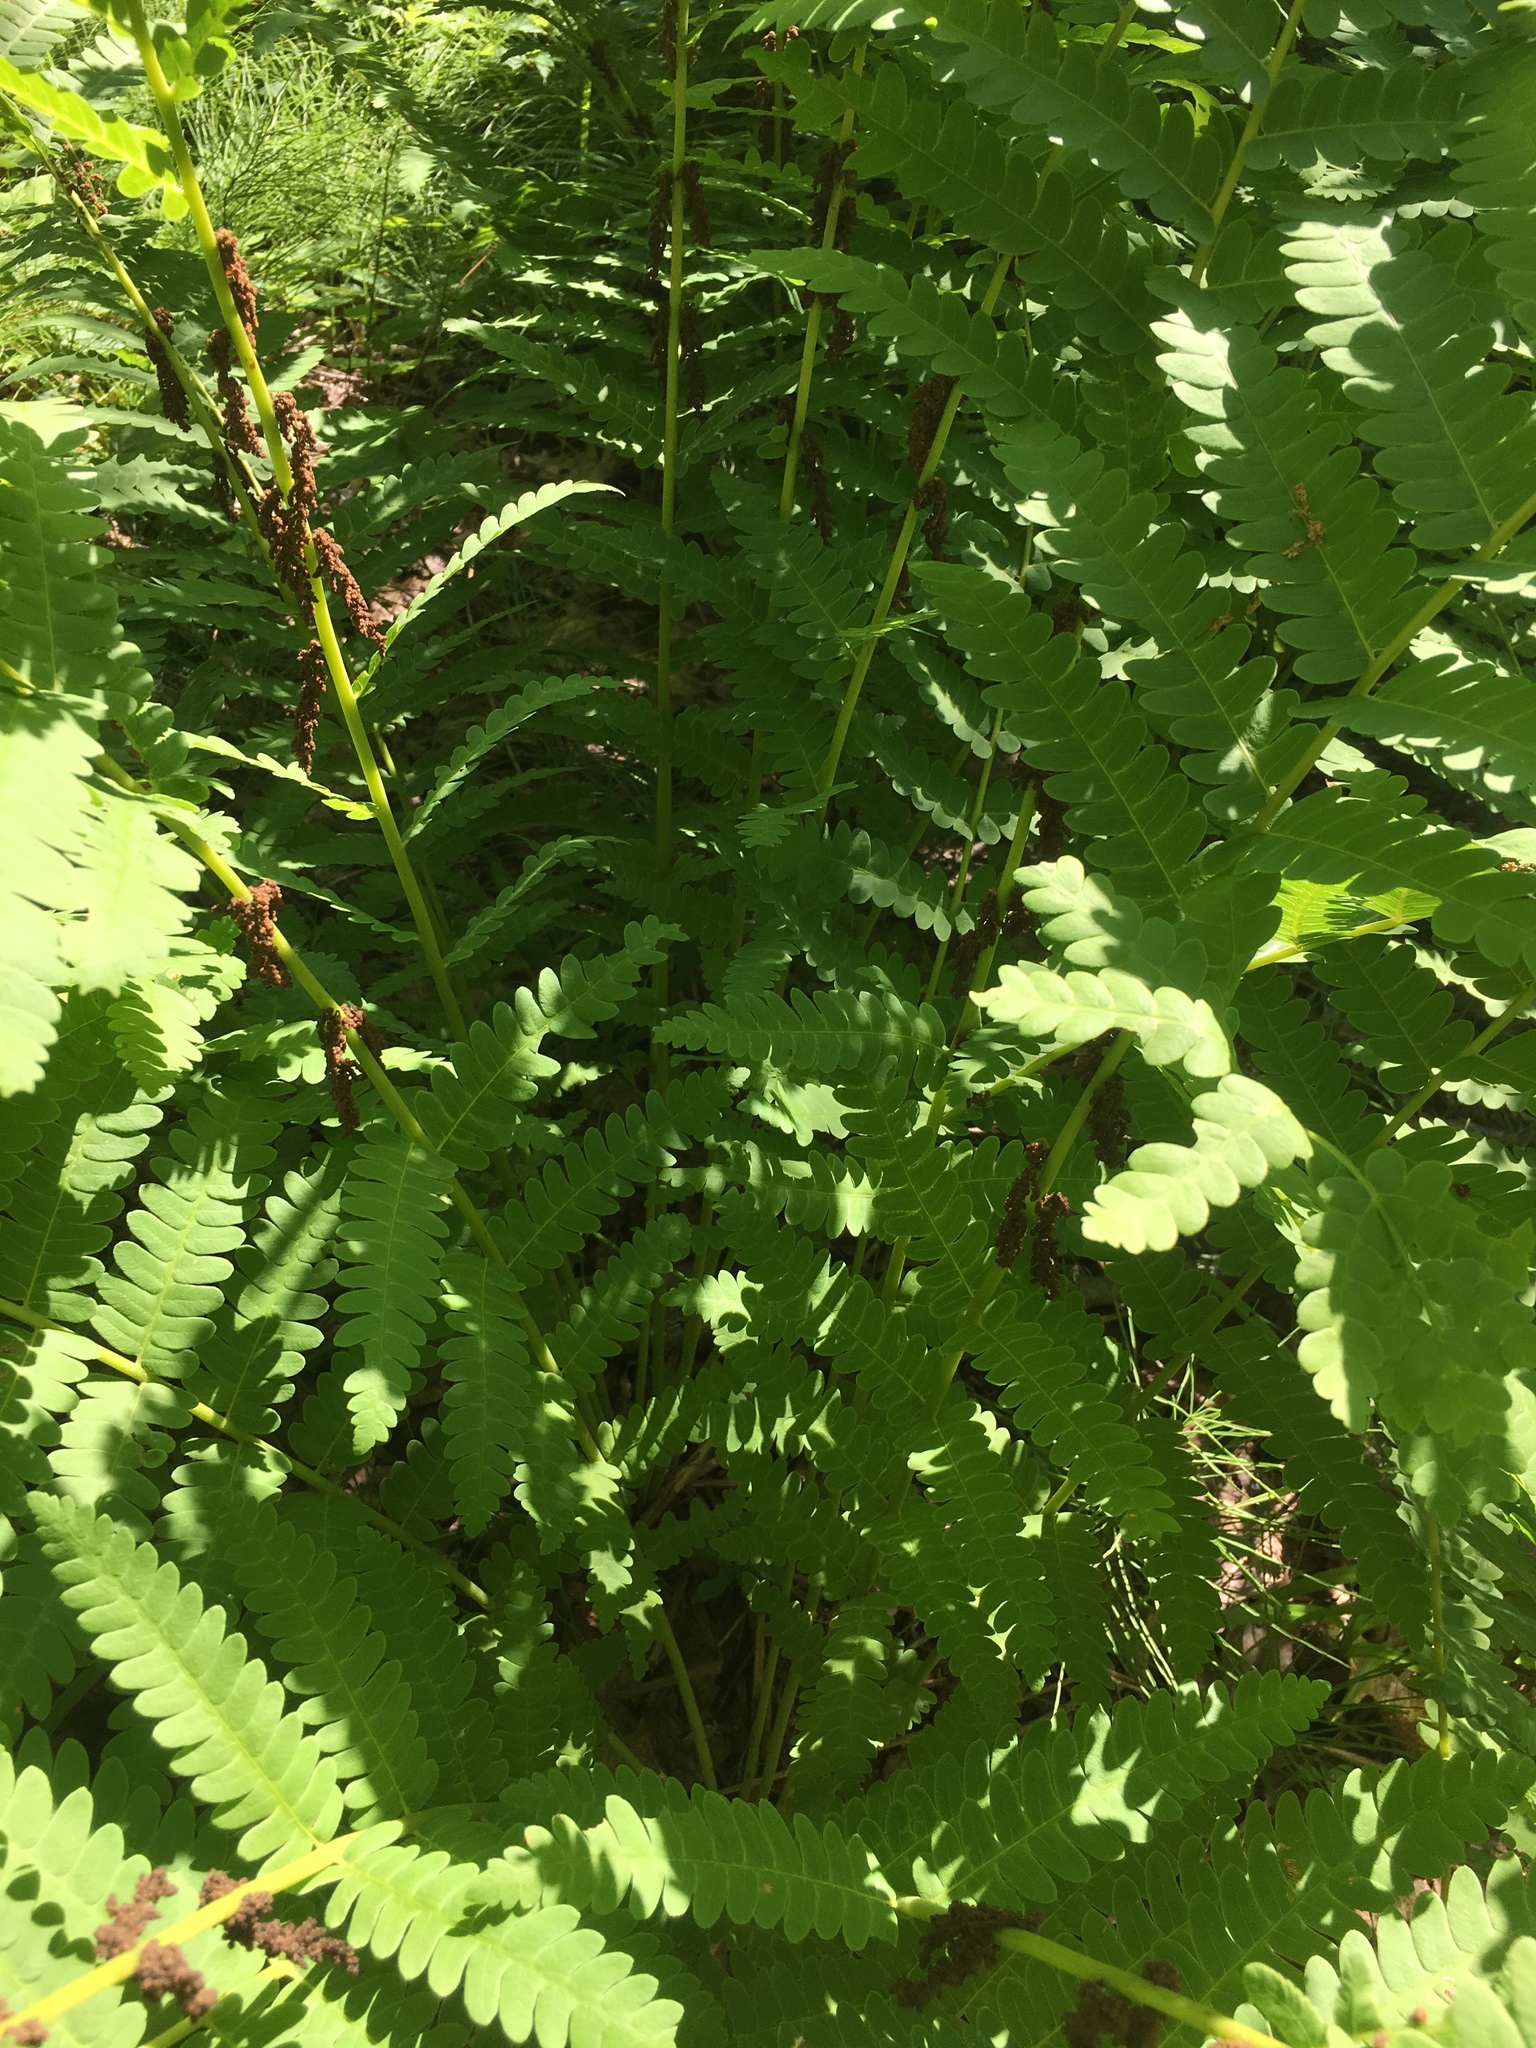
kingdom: Plantae
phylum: Tracheophyta
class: Polypodiopsida
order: Osmundales
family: Osmundaceae
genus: Claytosmunda
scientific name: Claytosmunda claytoniana
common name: Clayton's fern
